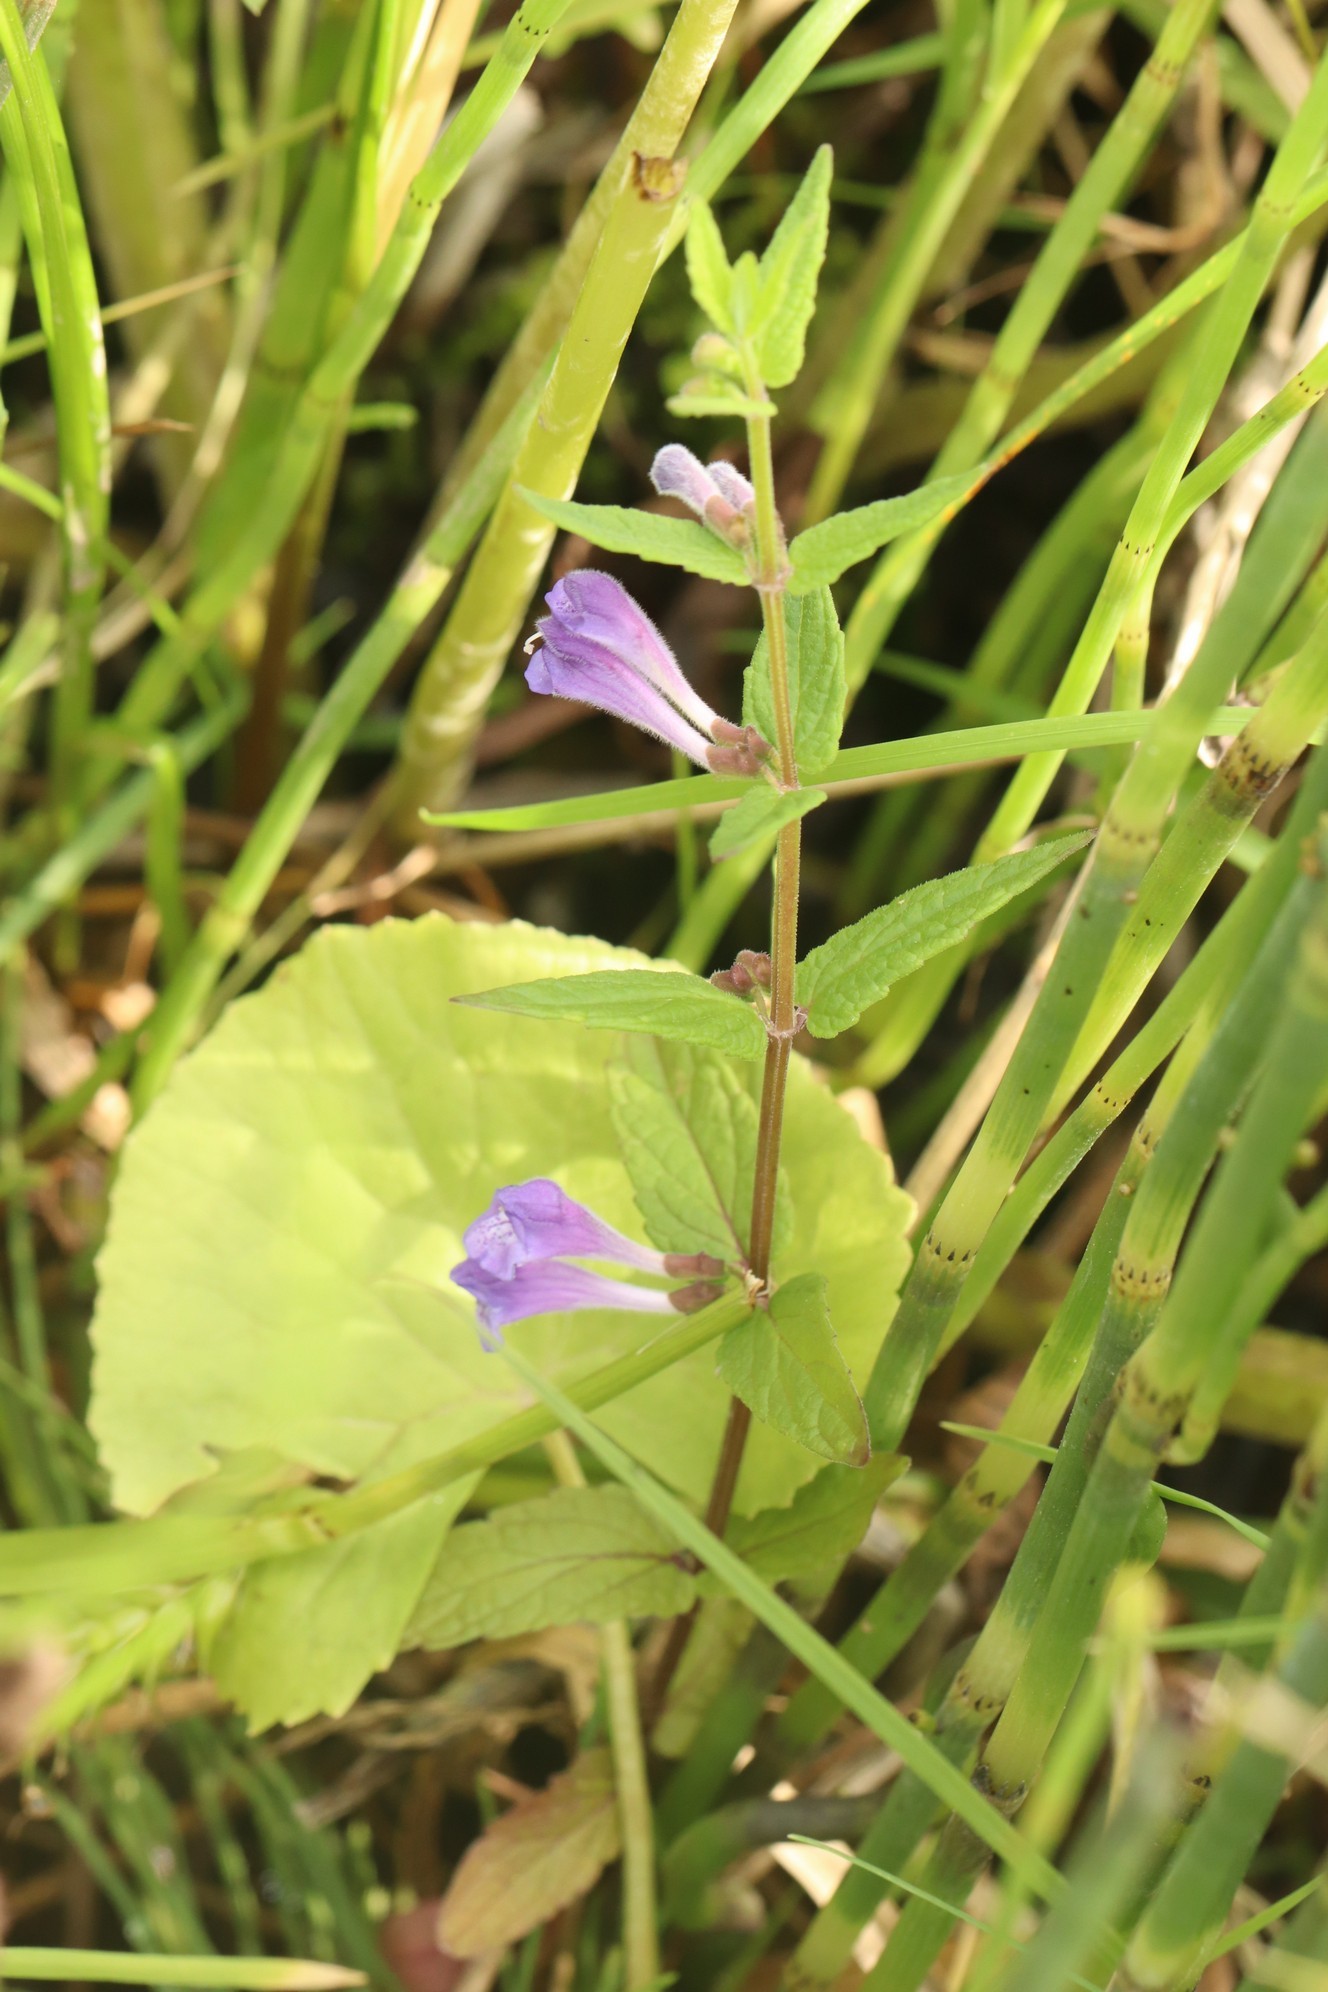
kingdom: Plantae
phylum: Tracheophyta
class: Magnoliopsida
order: Lamiales
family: Lamiaceae
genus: Scutellaria
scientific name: Scutellaria galericulata
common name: Skullcap
